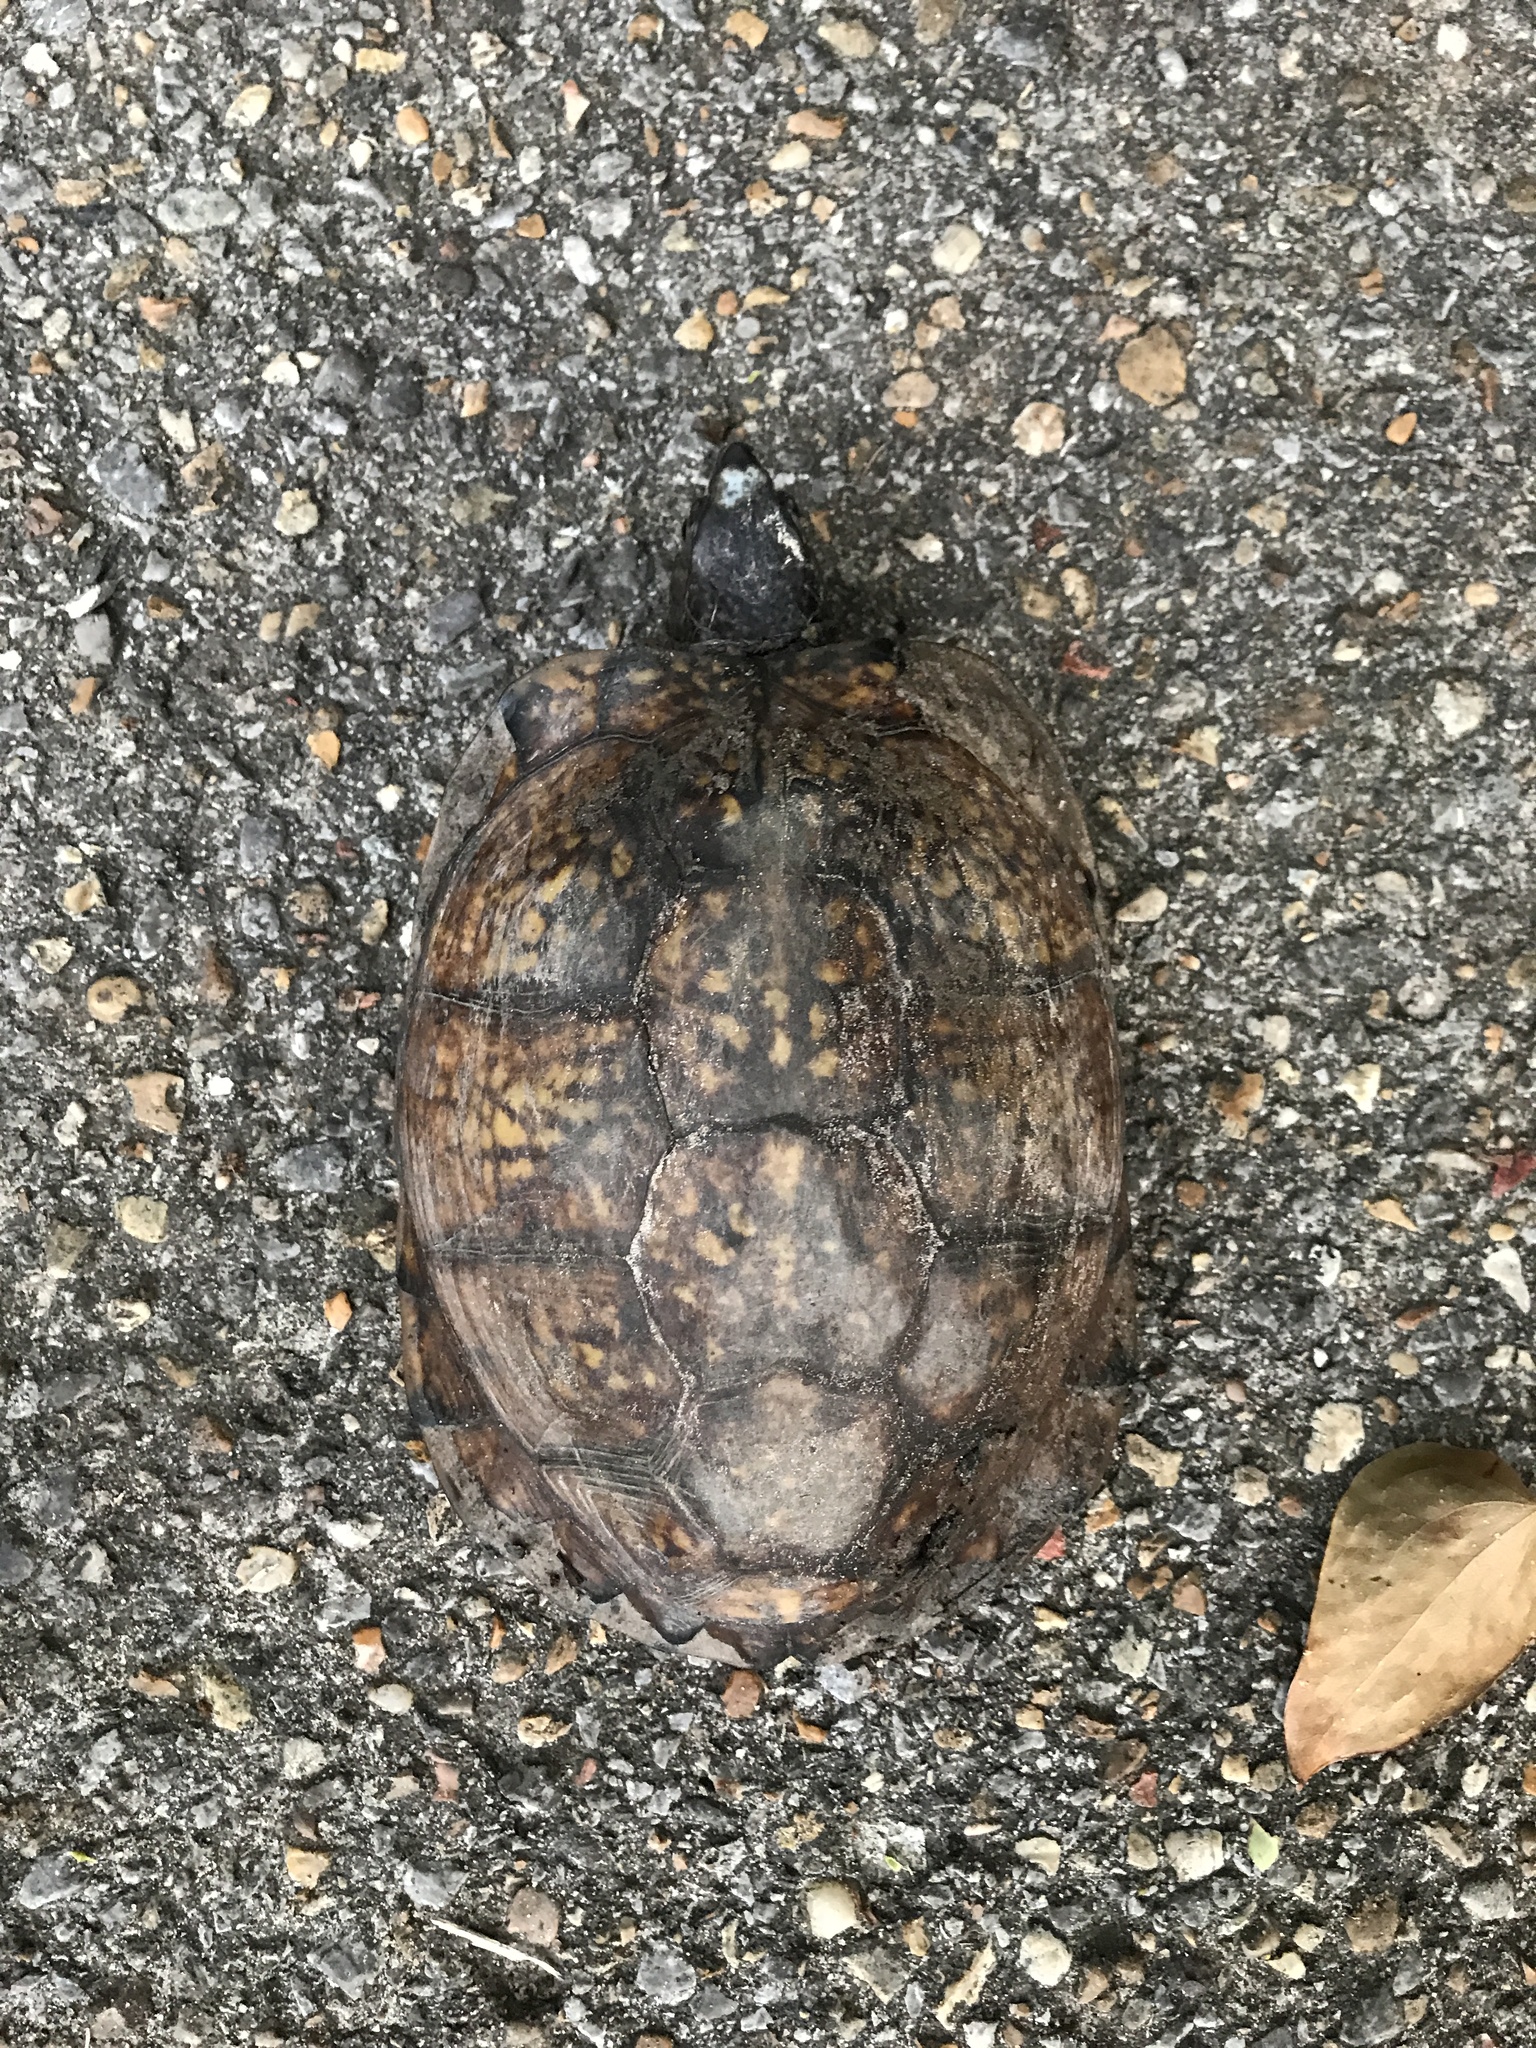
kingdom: Animalia
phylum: Chordata
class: Testudines
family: Emydidae
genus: Terrapene
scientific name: Terrapene carolina
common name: Common box turtle
